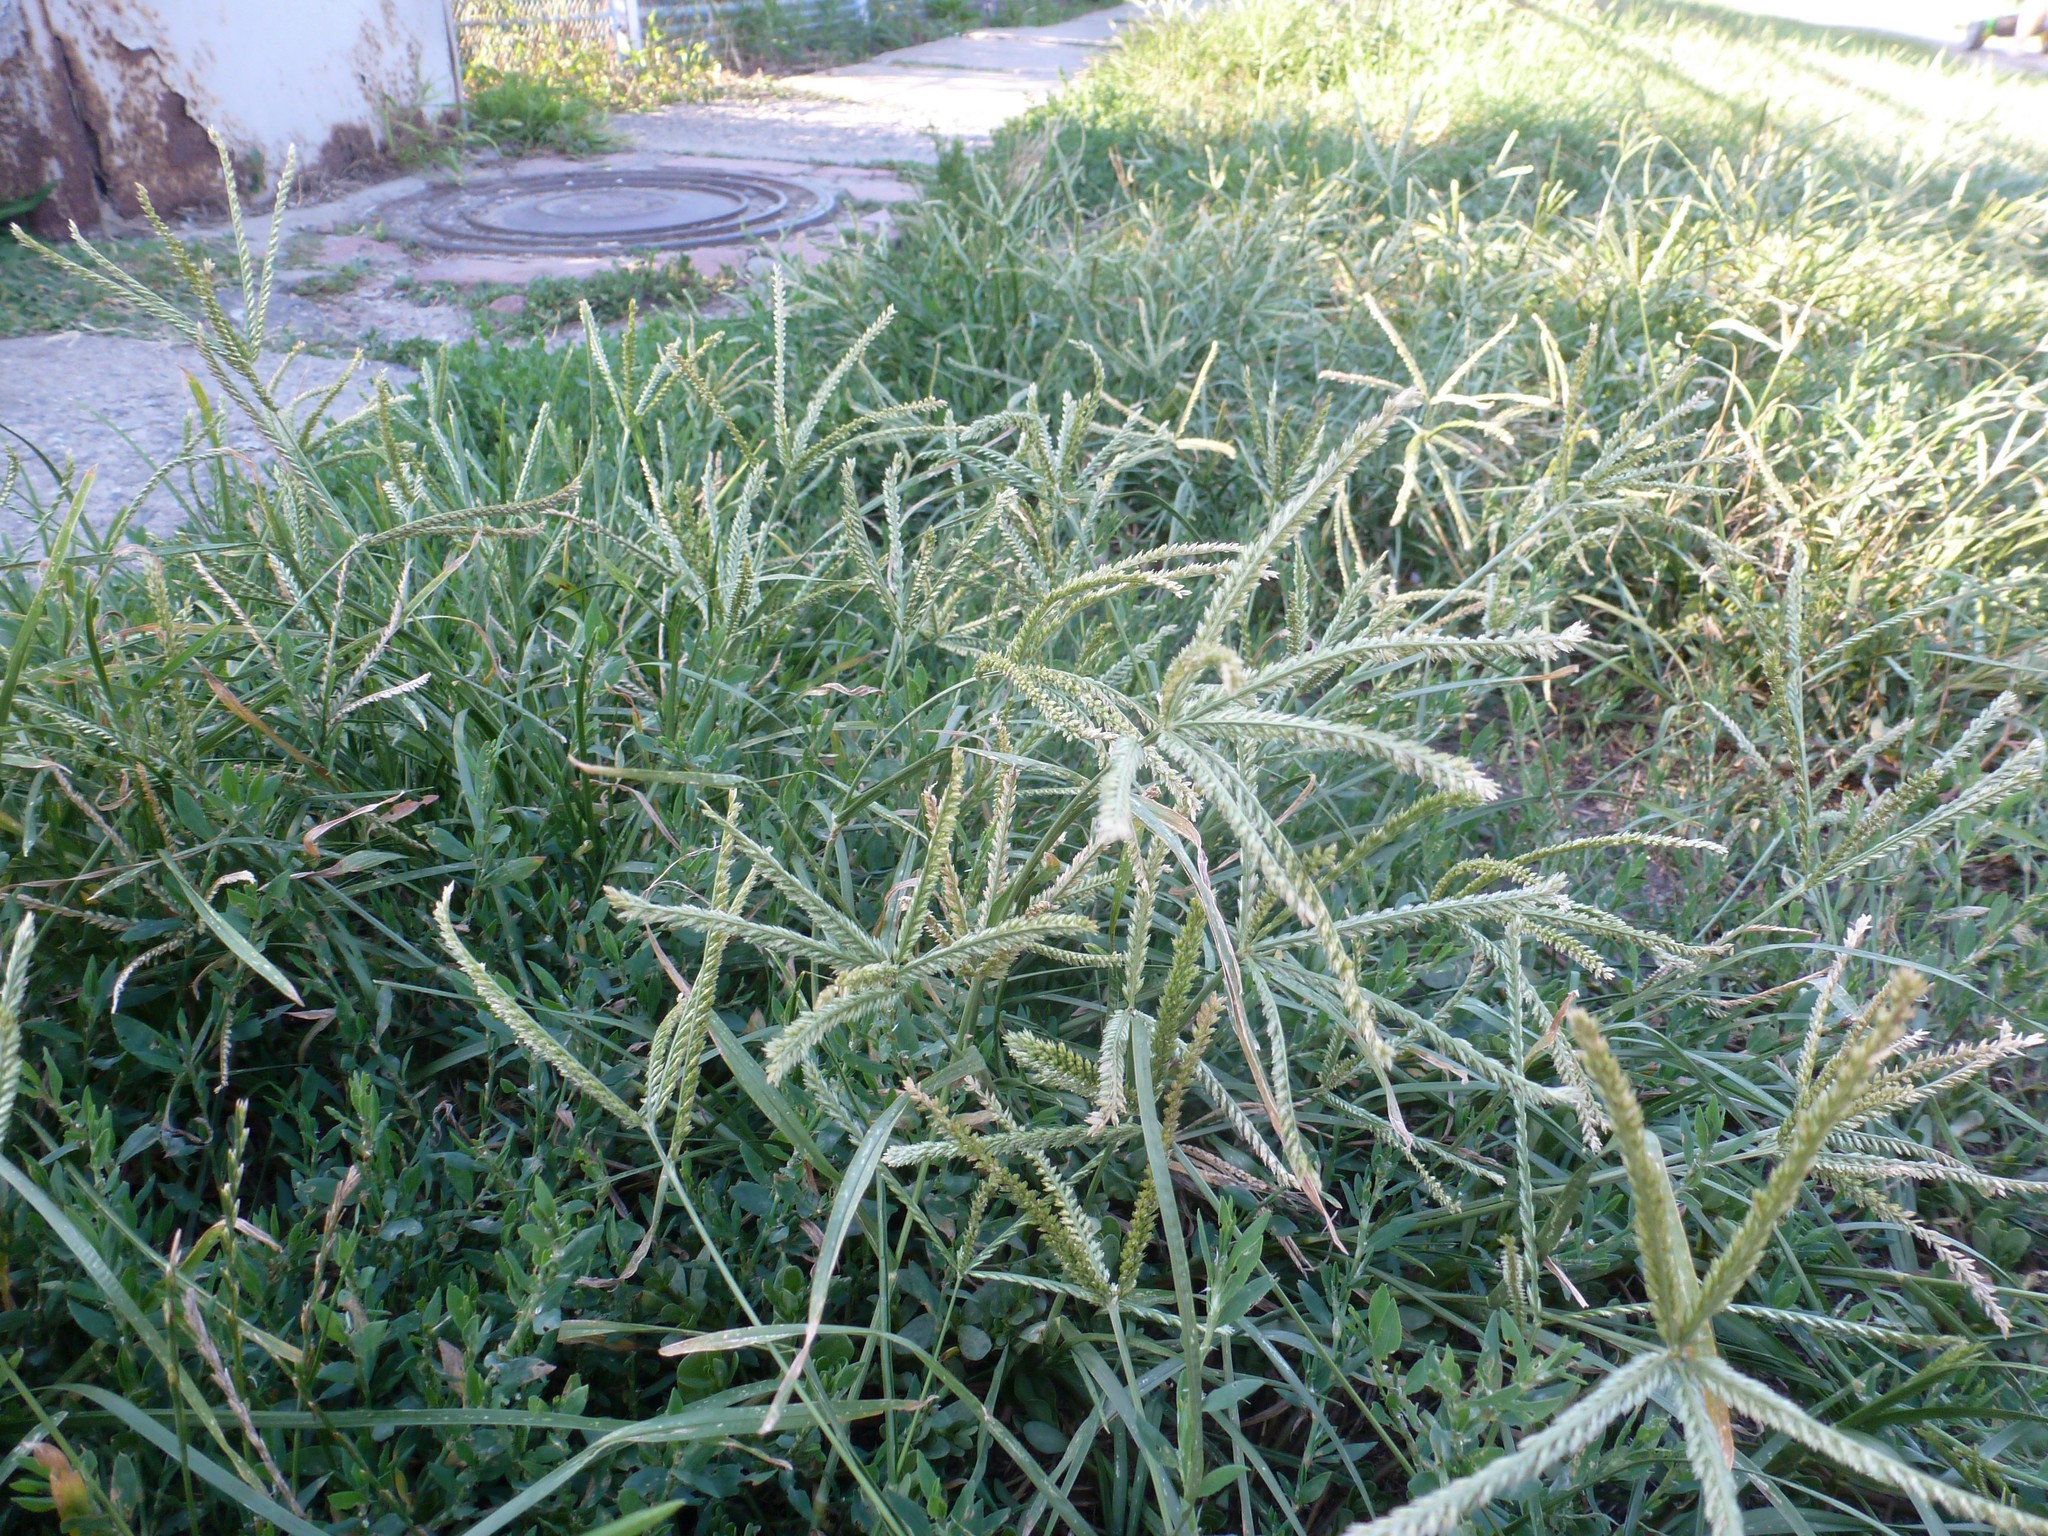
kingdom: Plantae
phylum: Tracheophyta
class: Liliopsida
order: Poales
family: Poaceae
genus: Eleusine
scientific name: Eleusine indica
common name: Yard-grass
